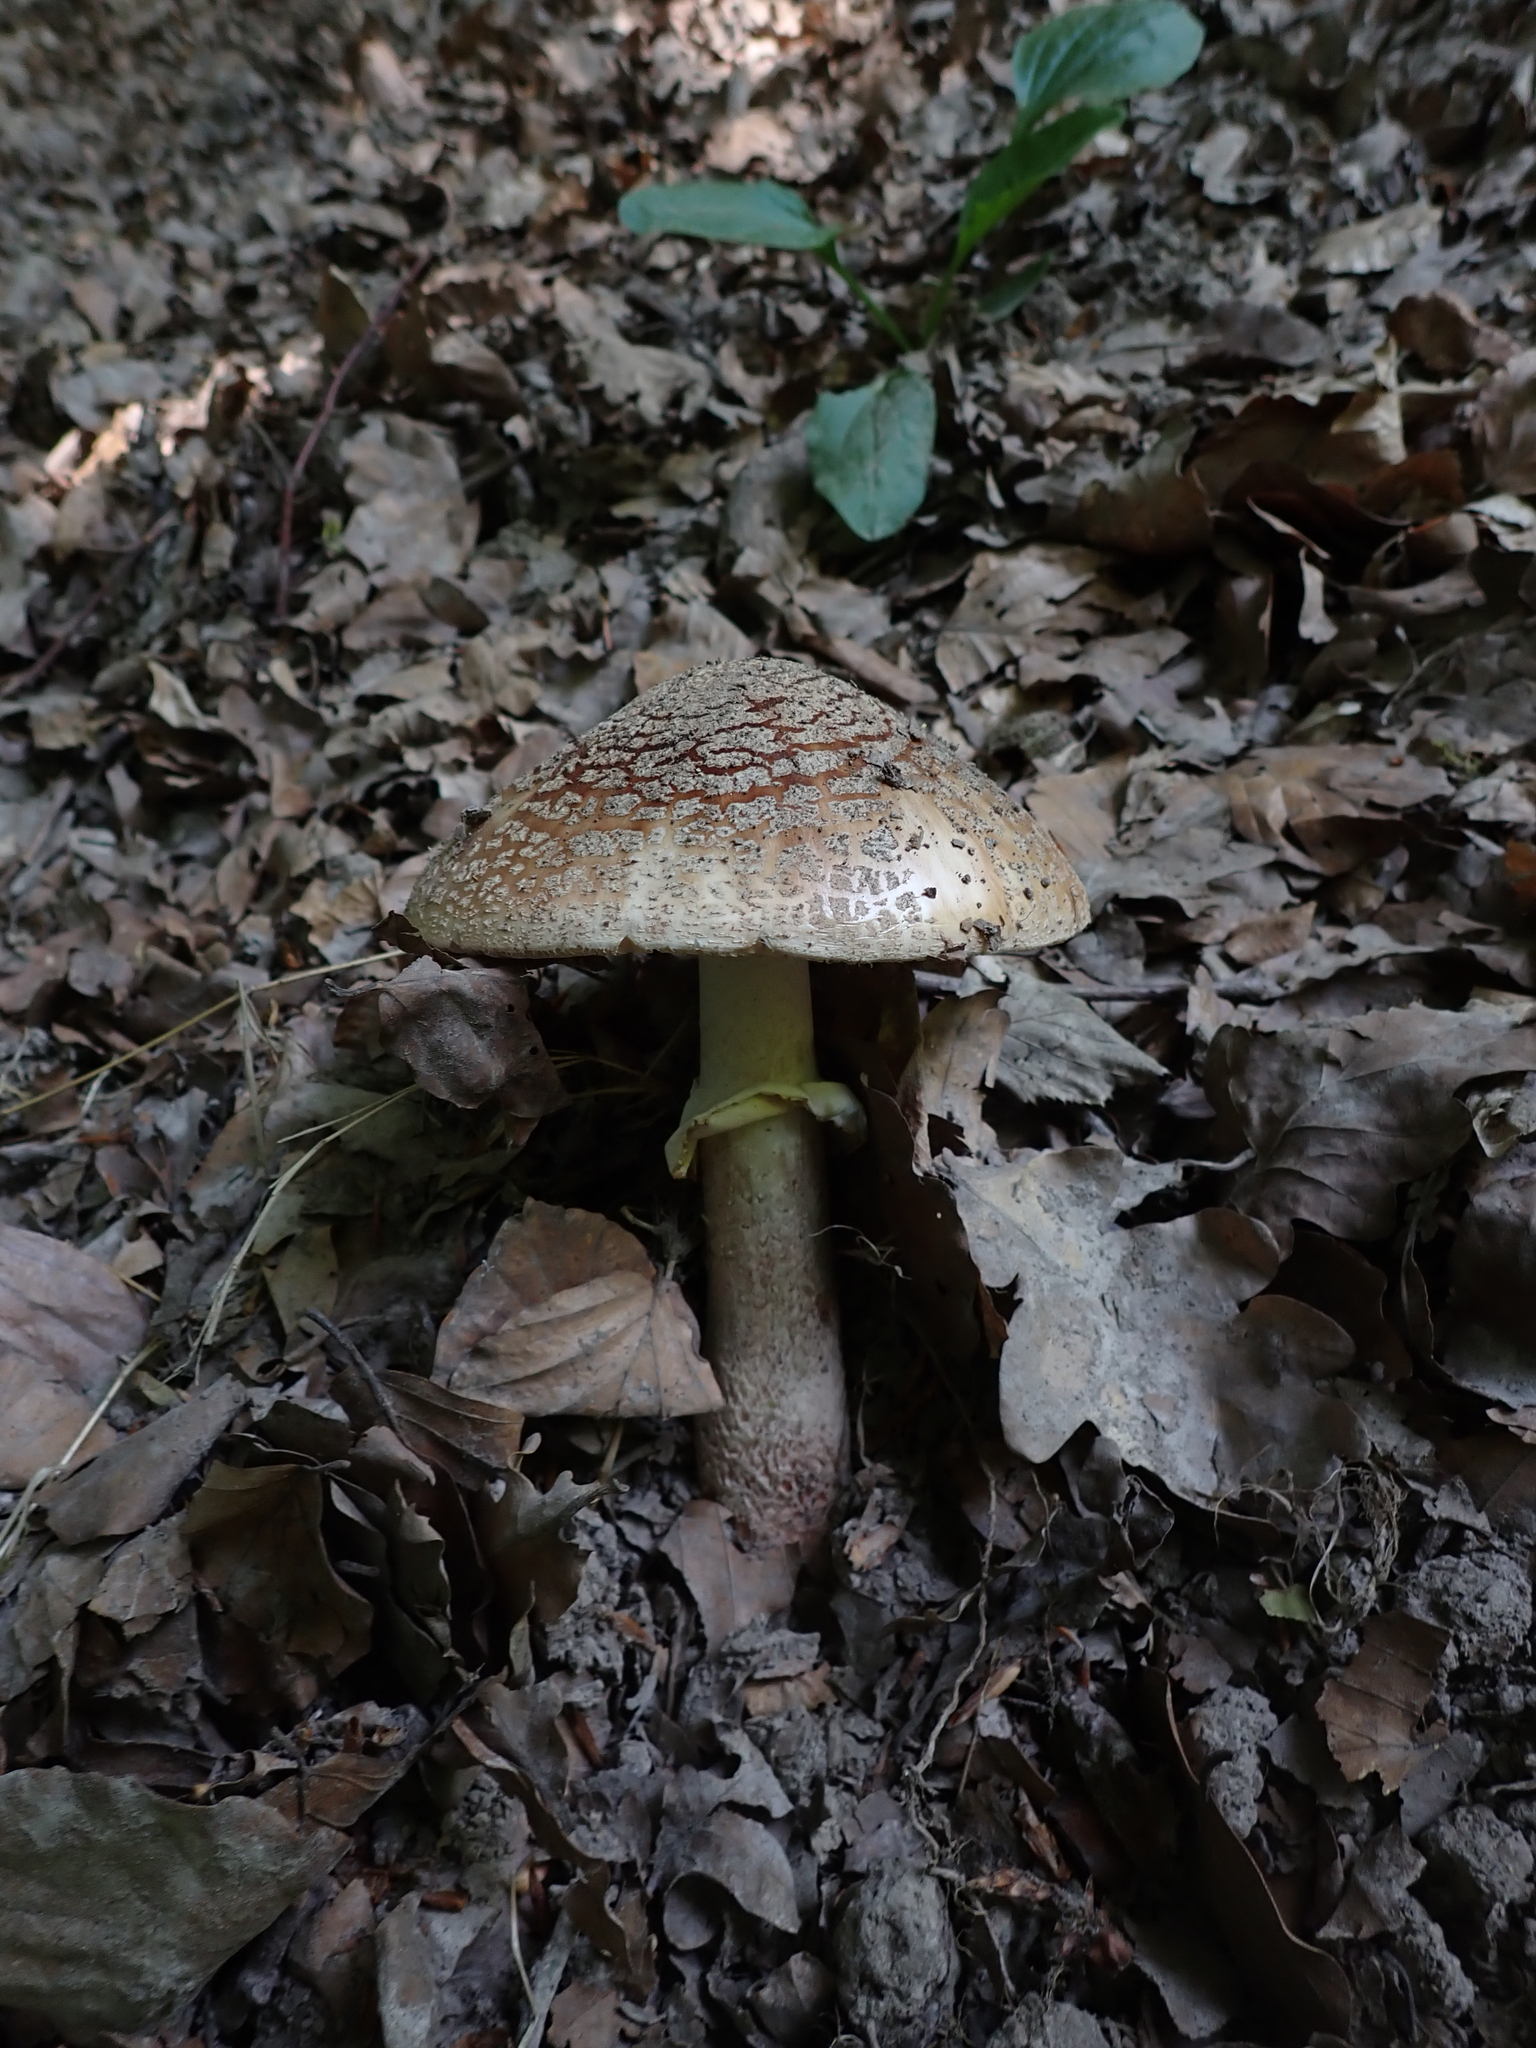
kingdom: Fungi
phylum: Basidiomycota
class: Agaricomycetes
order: Agaricales
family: Amanitaceae
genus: Amanita
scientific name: Amanita rubescens
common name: Blusher
